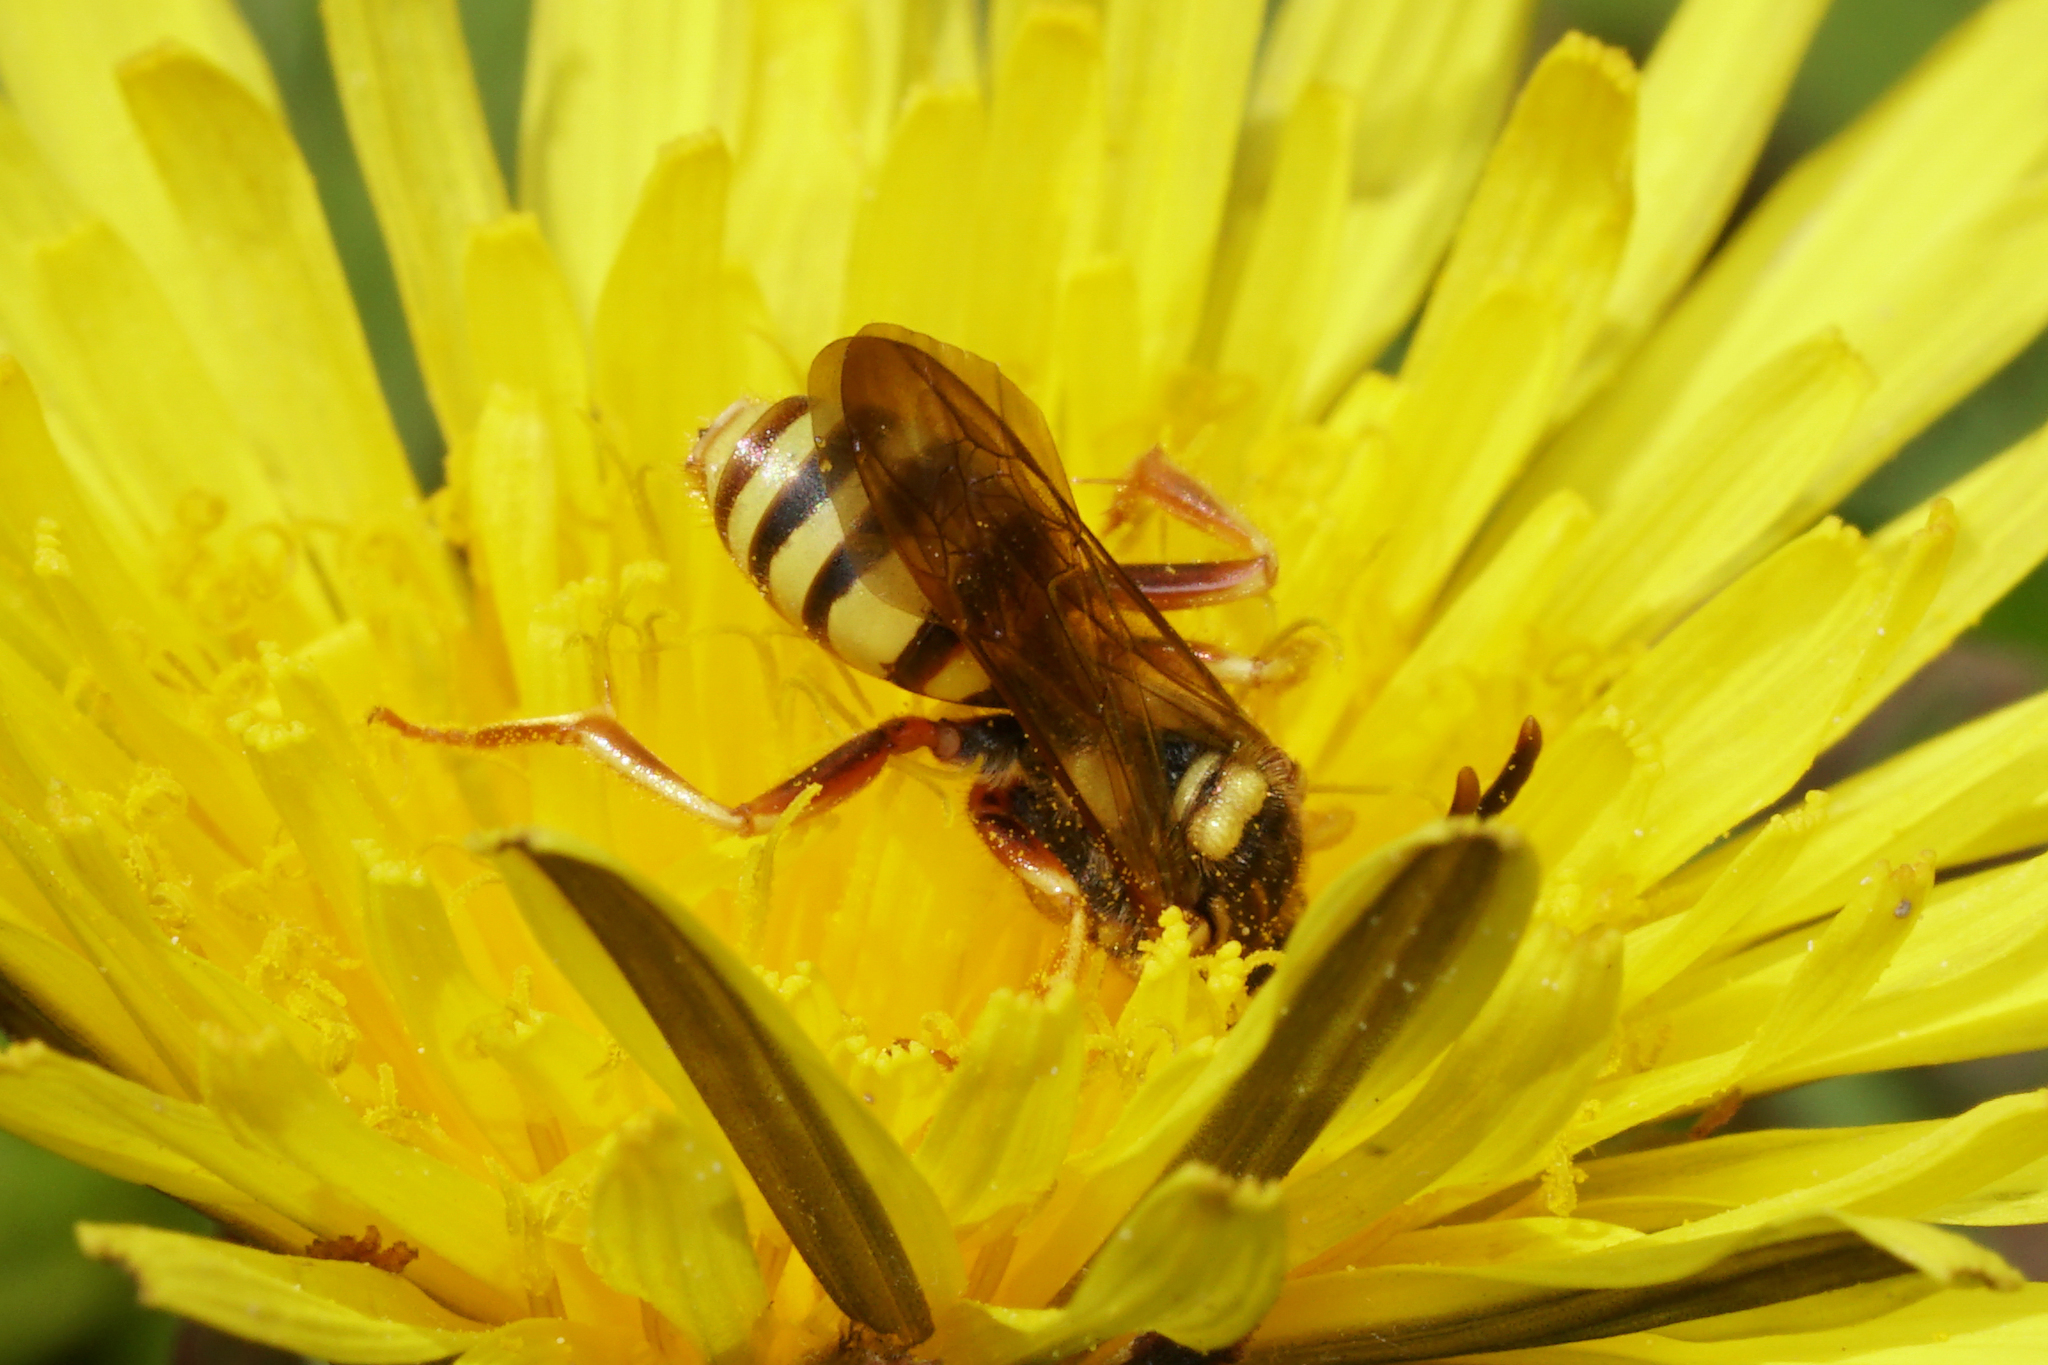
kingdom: Animalia
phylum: Arthropoda
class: Insecta
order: Hymenoptera
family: Apidae
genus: Nomada
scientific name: Nomada luteoloides
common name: Black-and-yellow nomad bee
